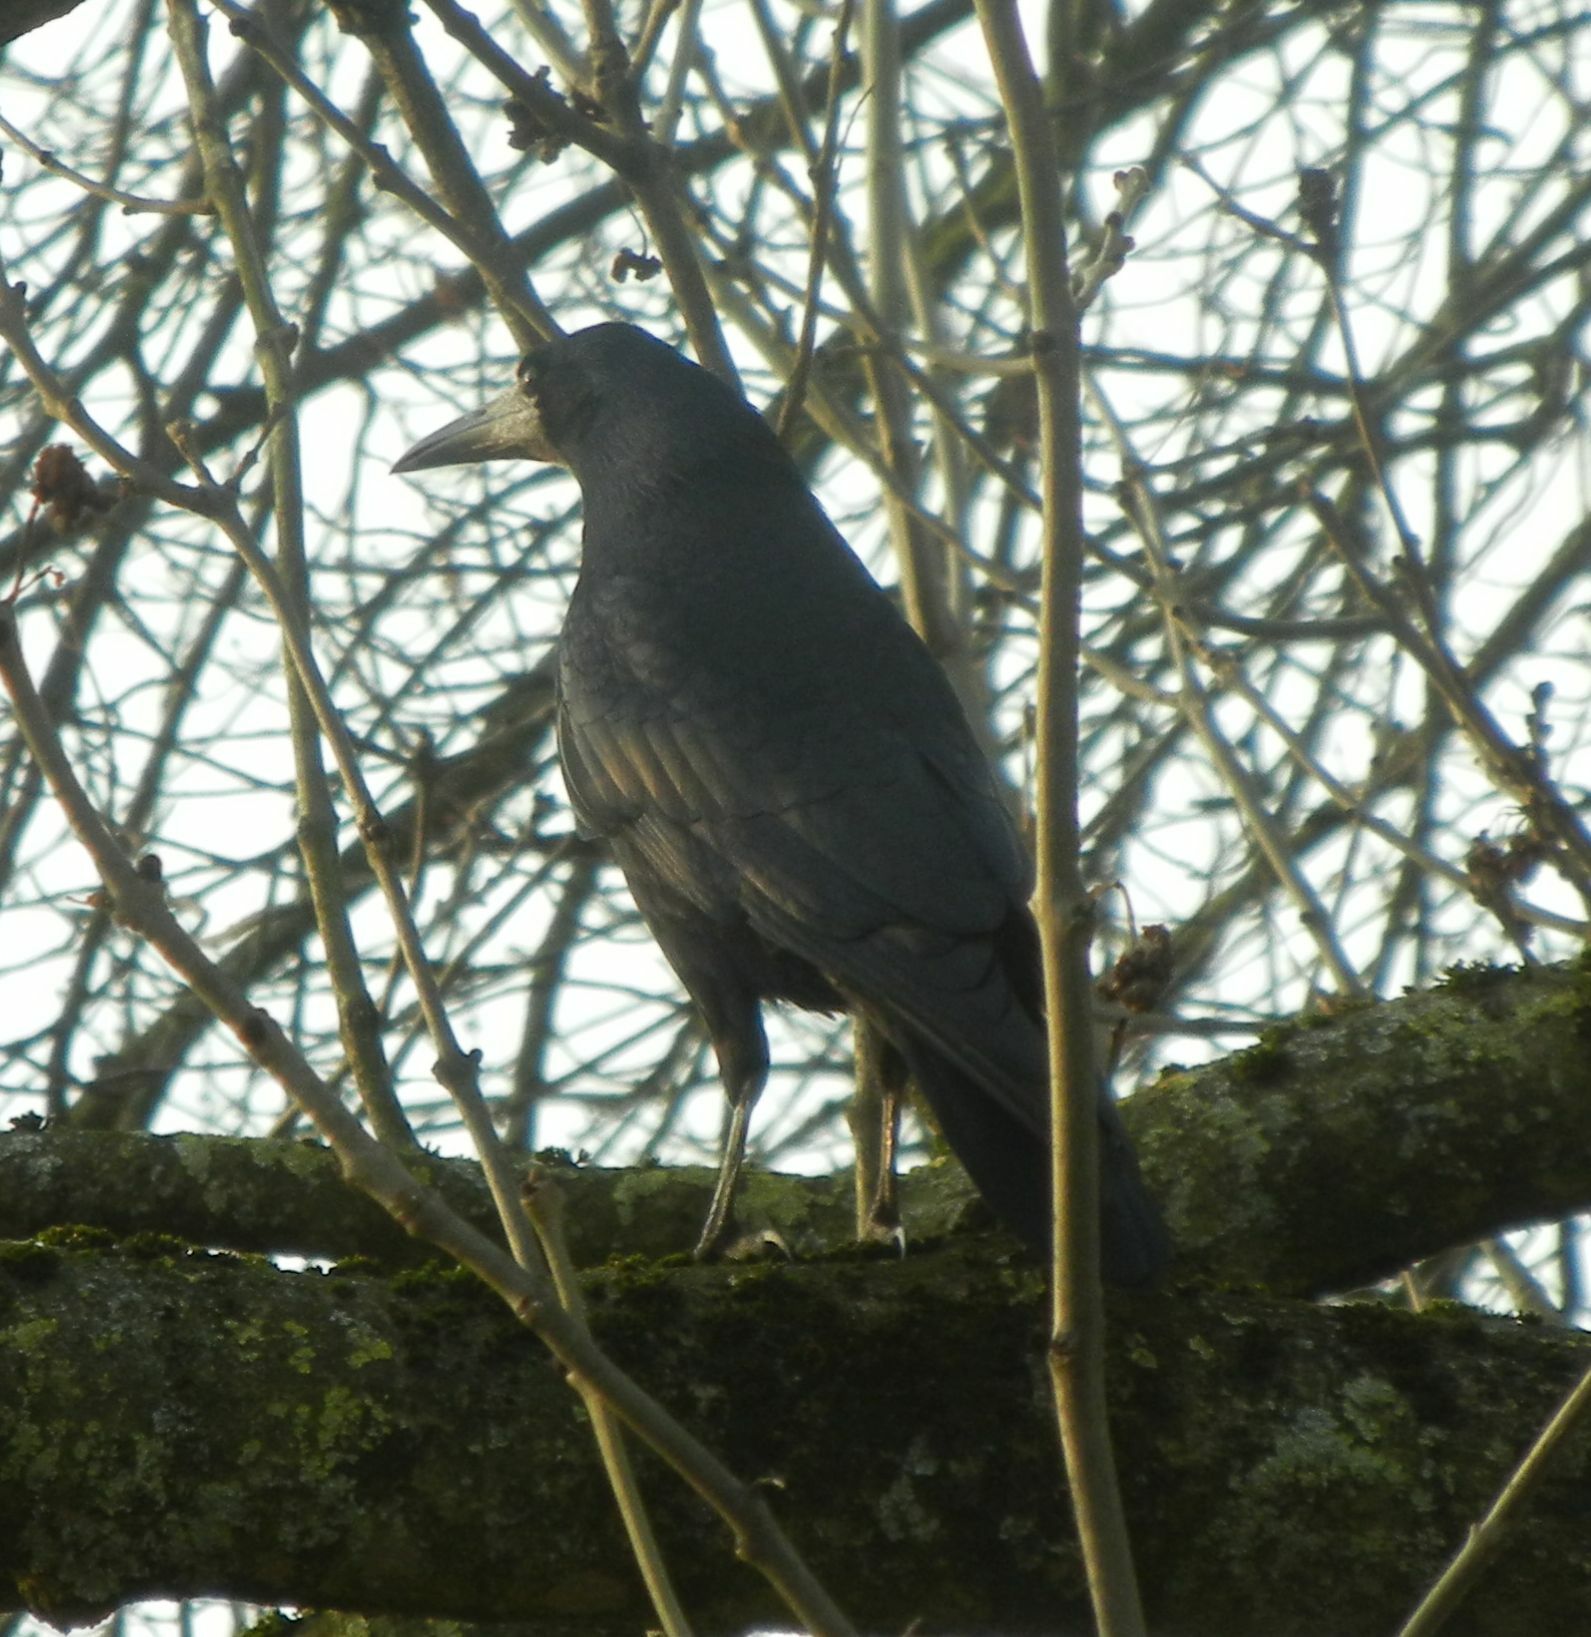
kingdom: Animalia
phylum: Chordata
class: Aves
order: Passeriformes
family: Corvidae
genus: Corvus
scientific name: Corvus frugilegus
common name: Rook
